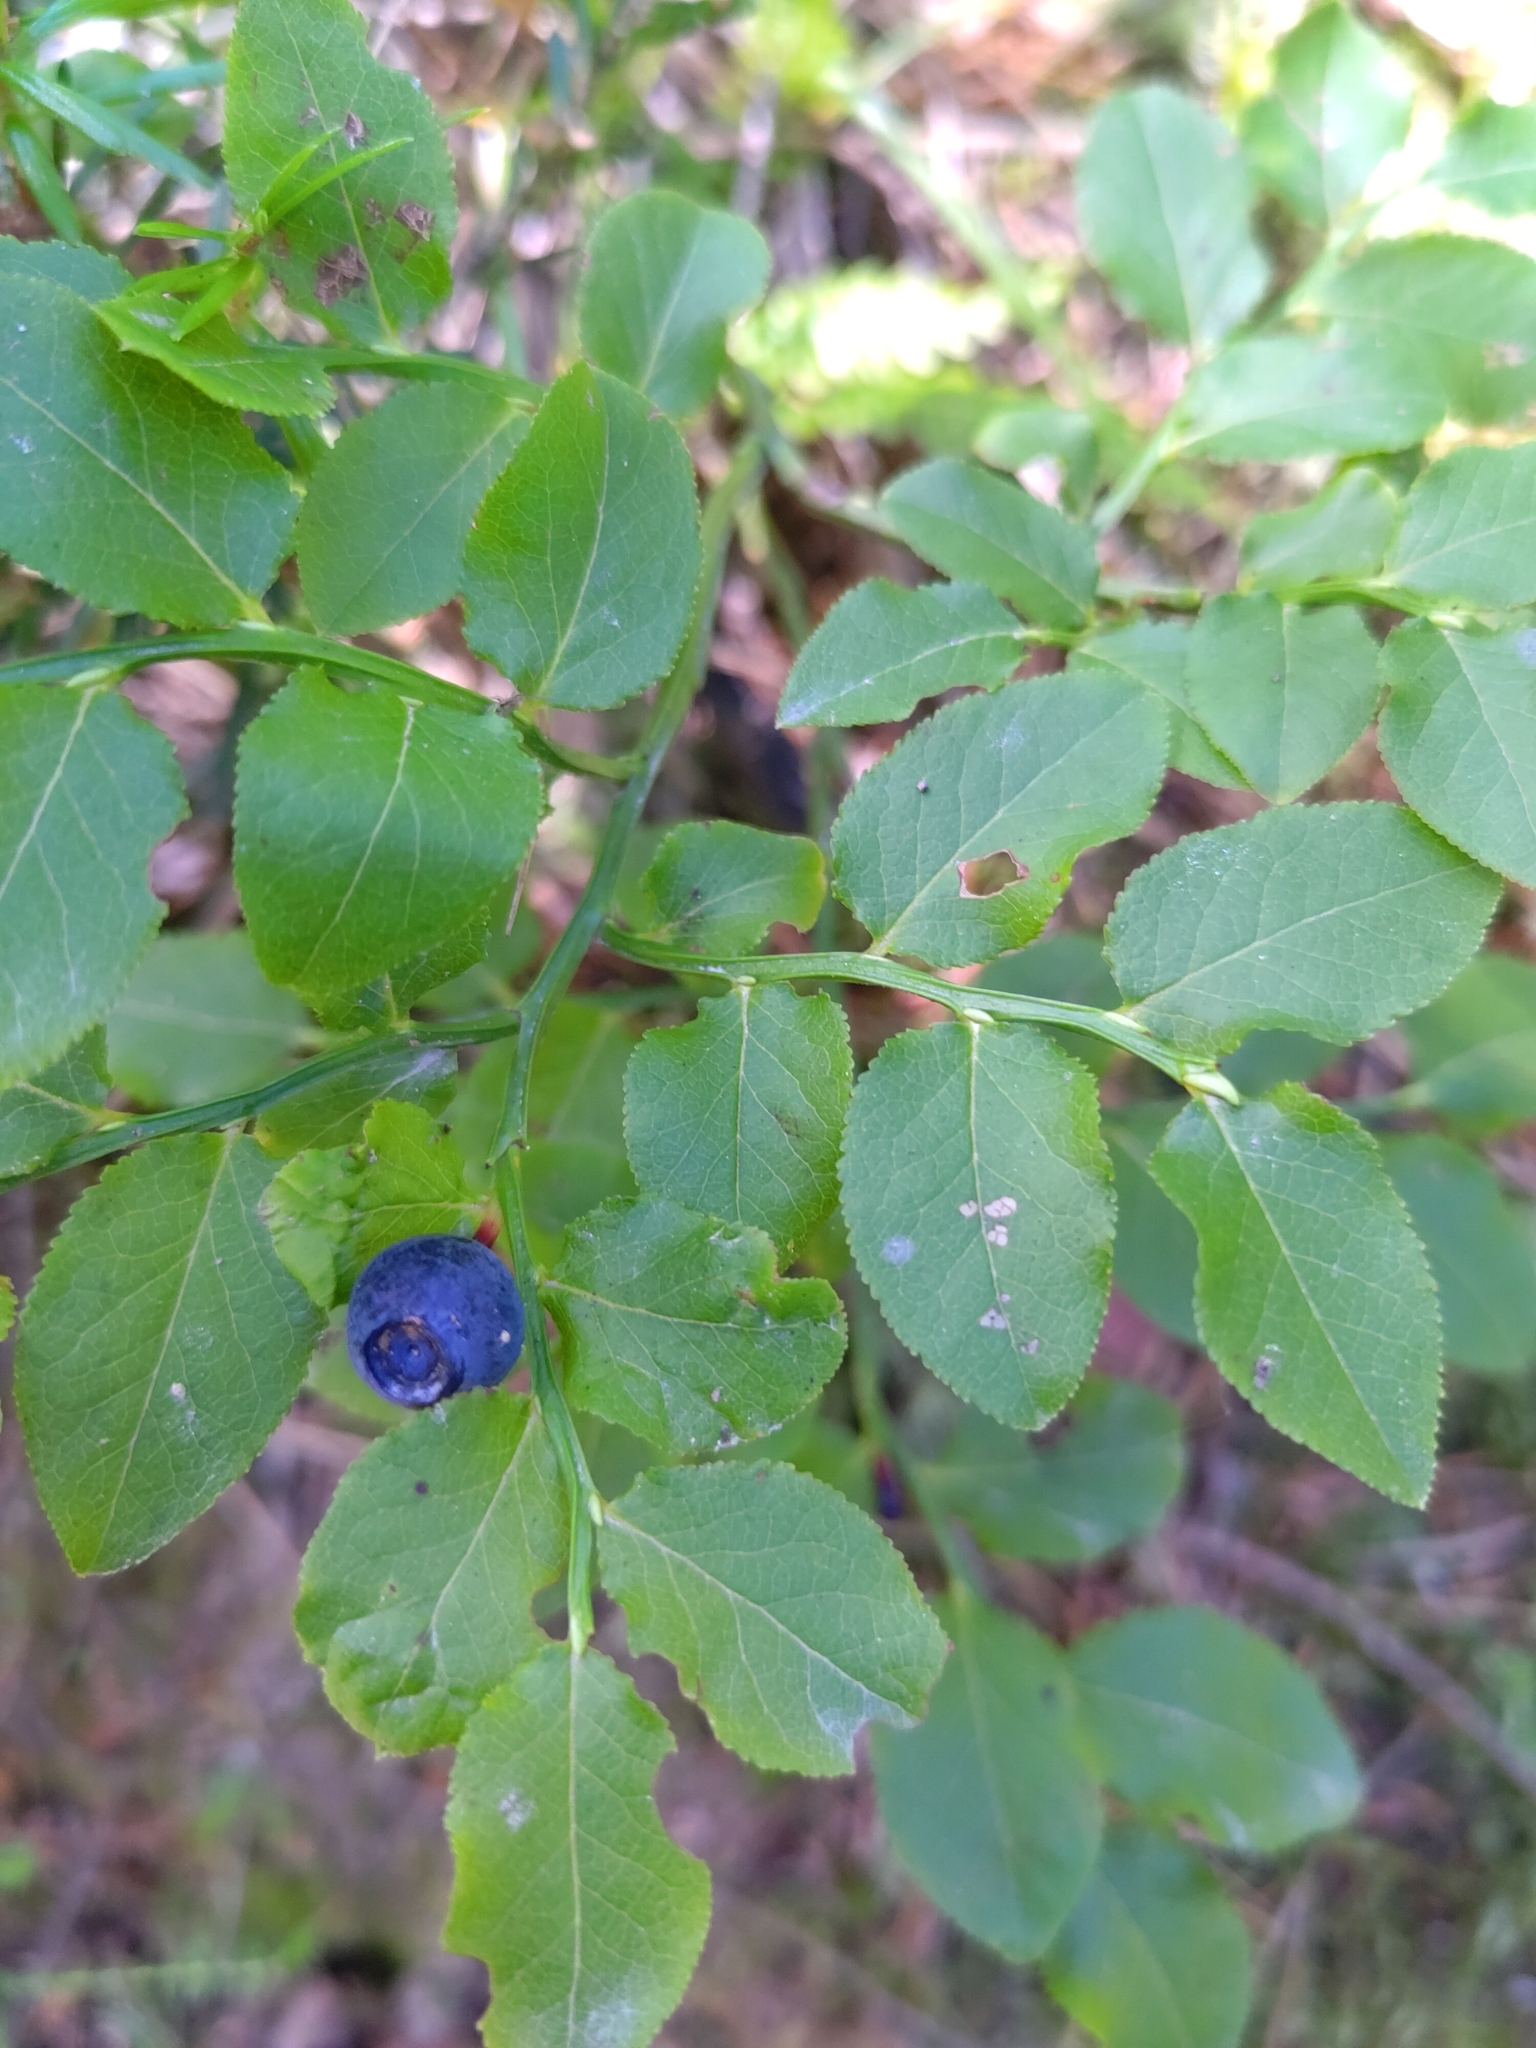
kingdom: Plantae
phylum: Tracheophyta
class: Magnoliopsida
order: Ericales
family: Ericaceae
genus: Vaccinium
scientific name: Vaccinium myrtillus
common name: Bilberry
